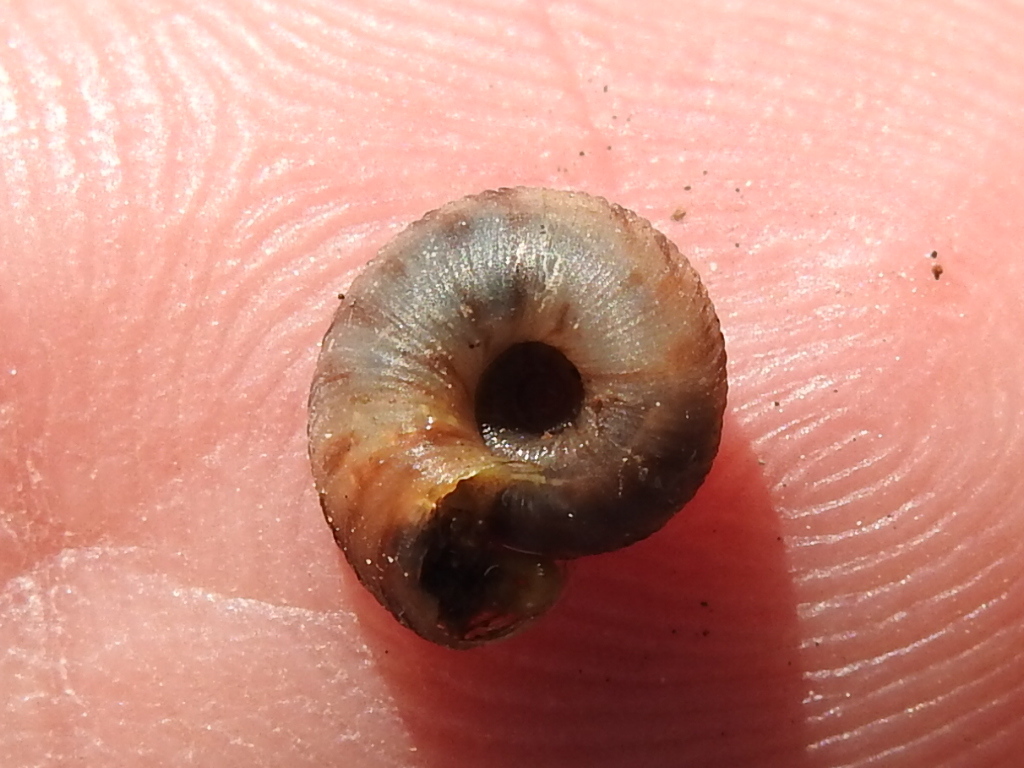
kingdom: Animalia
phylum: Mollusca
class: Gastropoda
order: Stylommatophora
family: Discidae
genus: Anguispira
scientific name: Anguispira strongylodes
